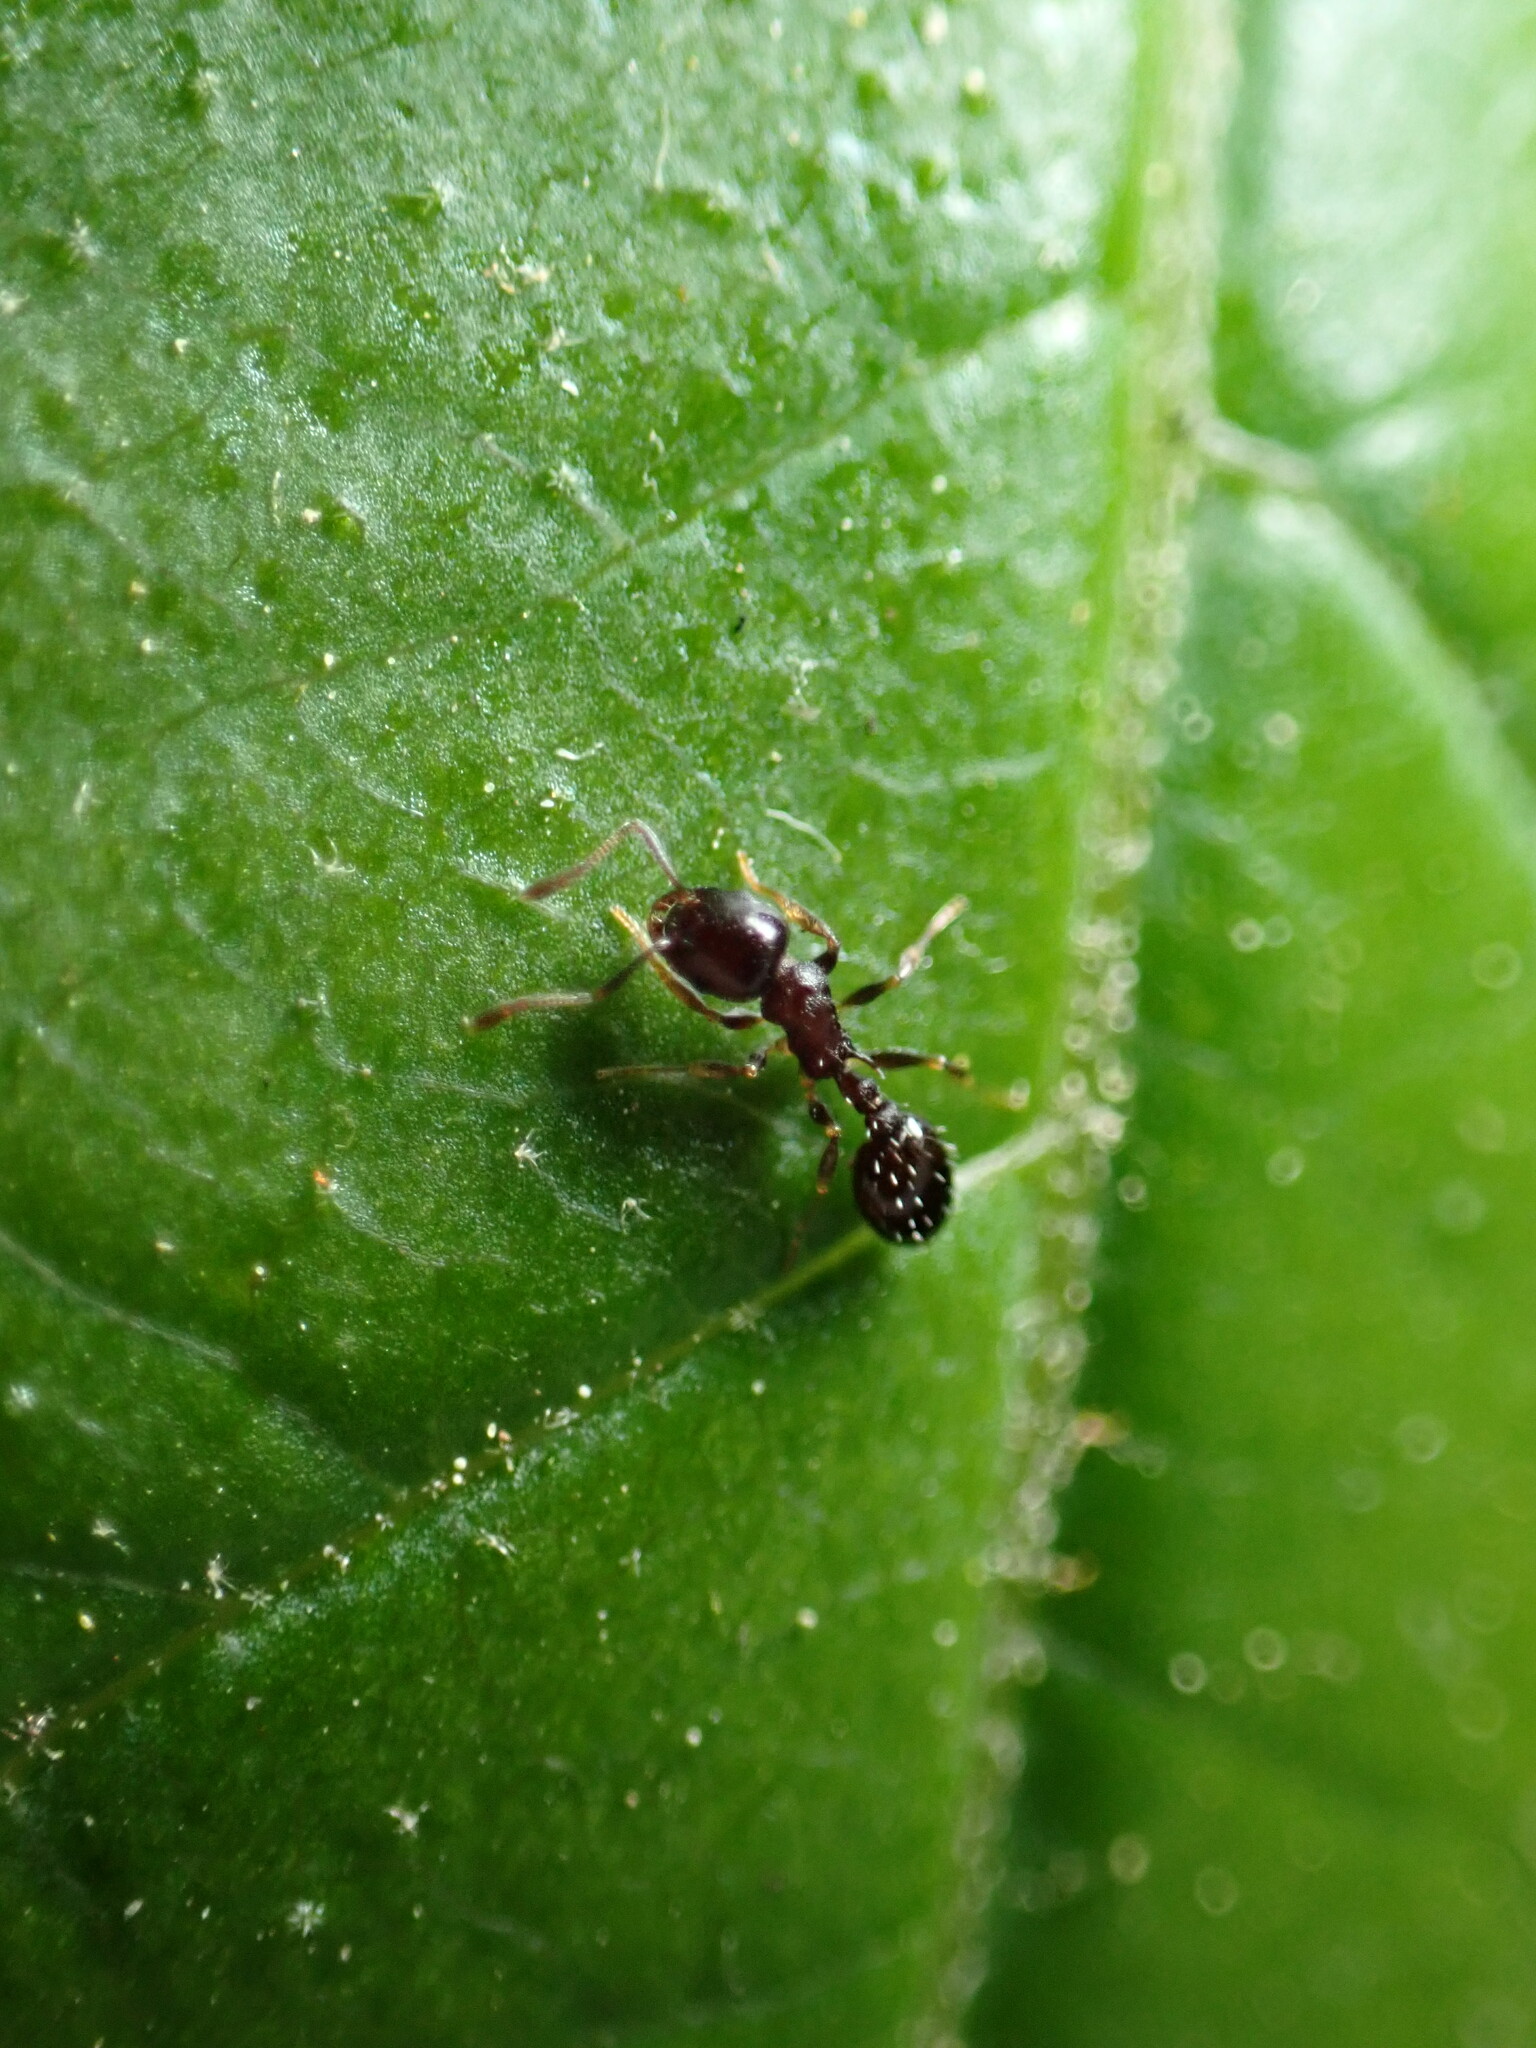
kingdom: Animalia
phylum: Arthropoda
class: Insecta
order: Hymenoptera
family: Formicidae
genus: Temnothorax
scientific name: Temnothorax longispinosus
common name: Long-spined acorn ant
